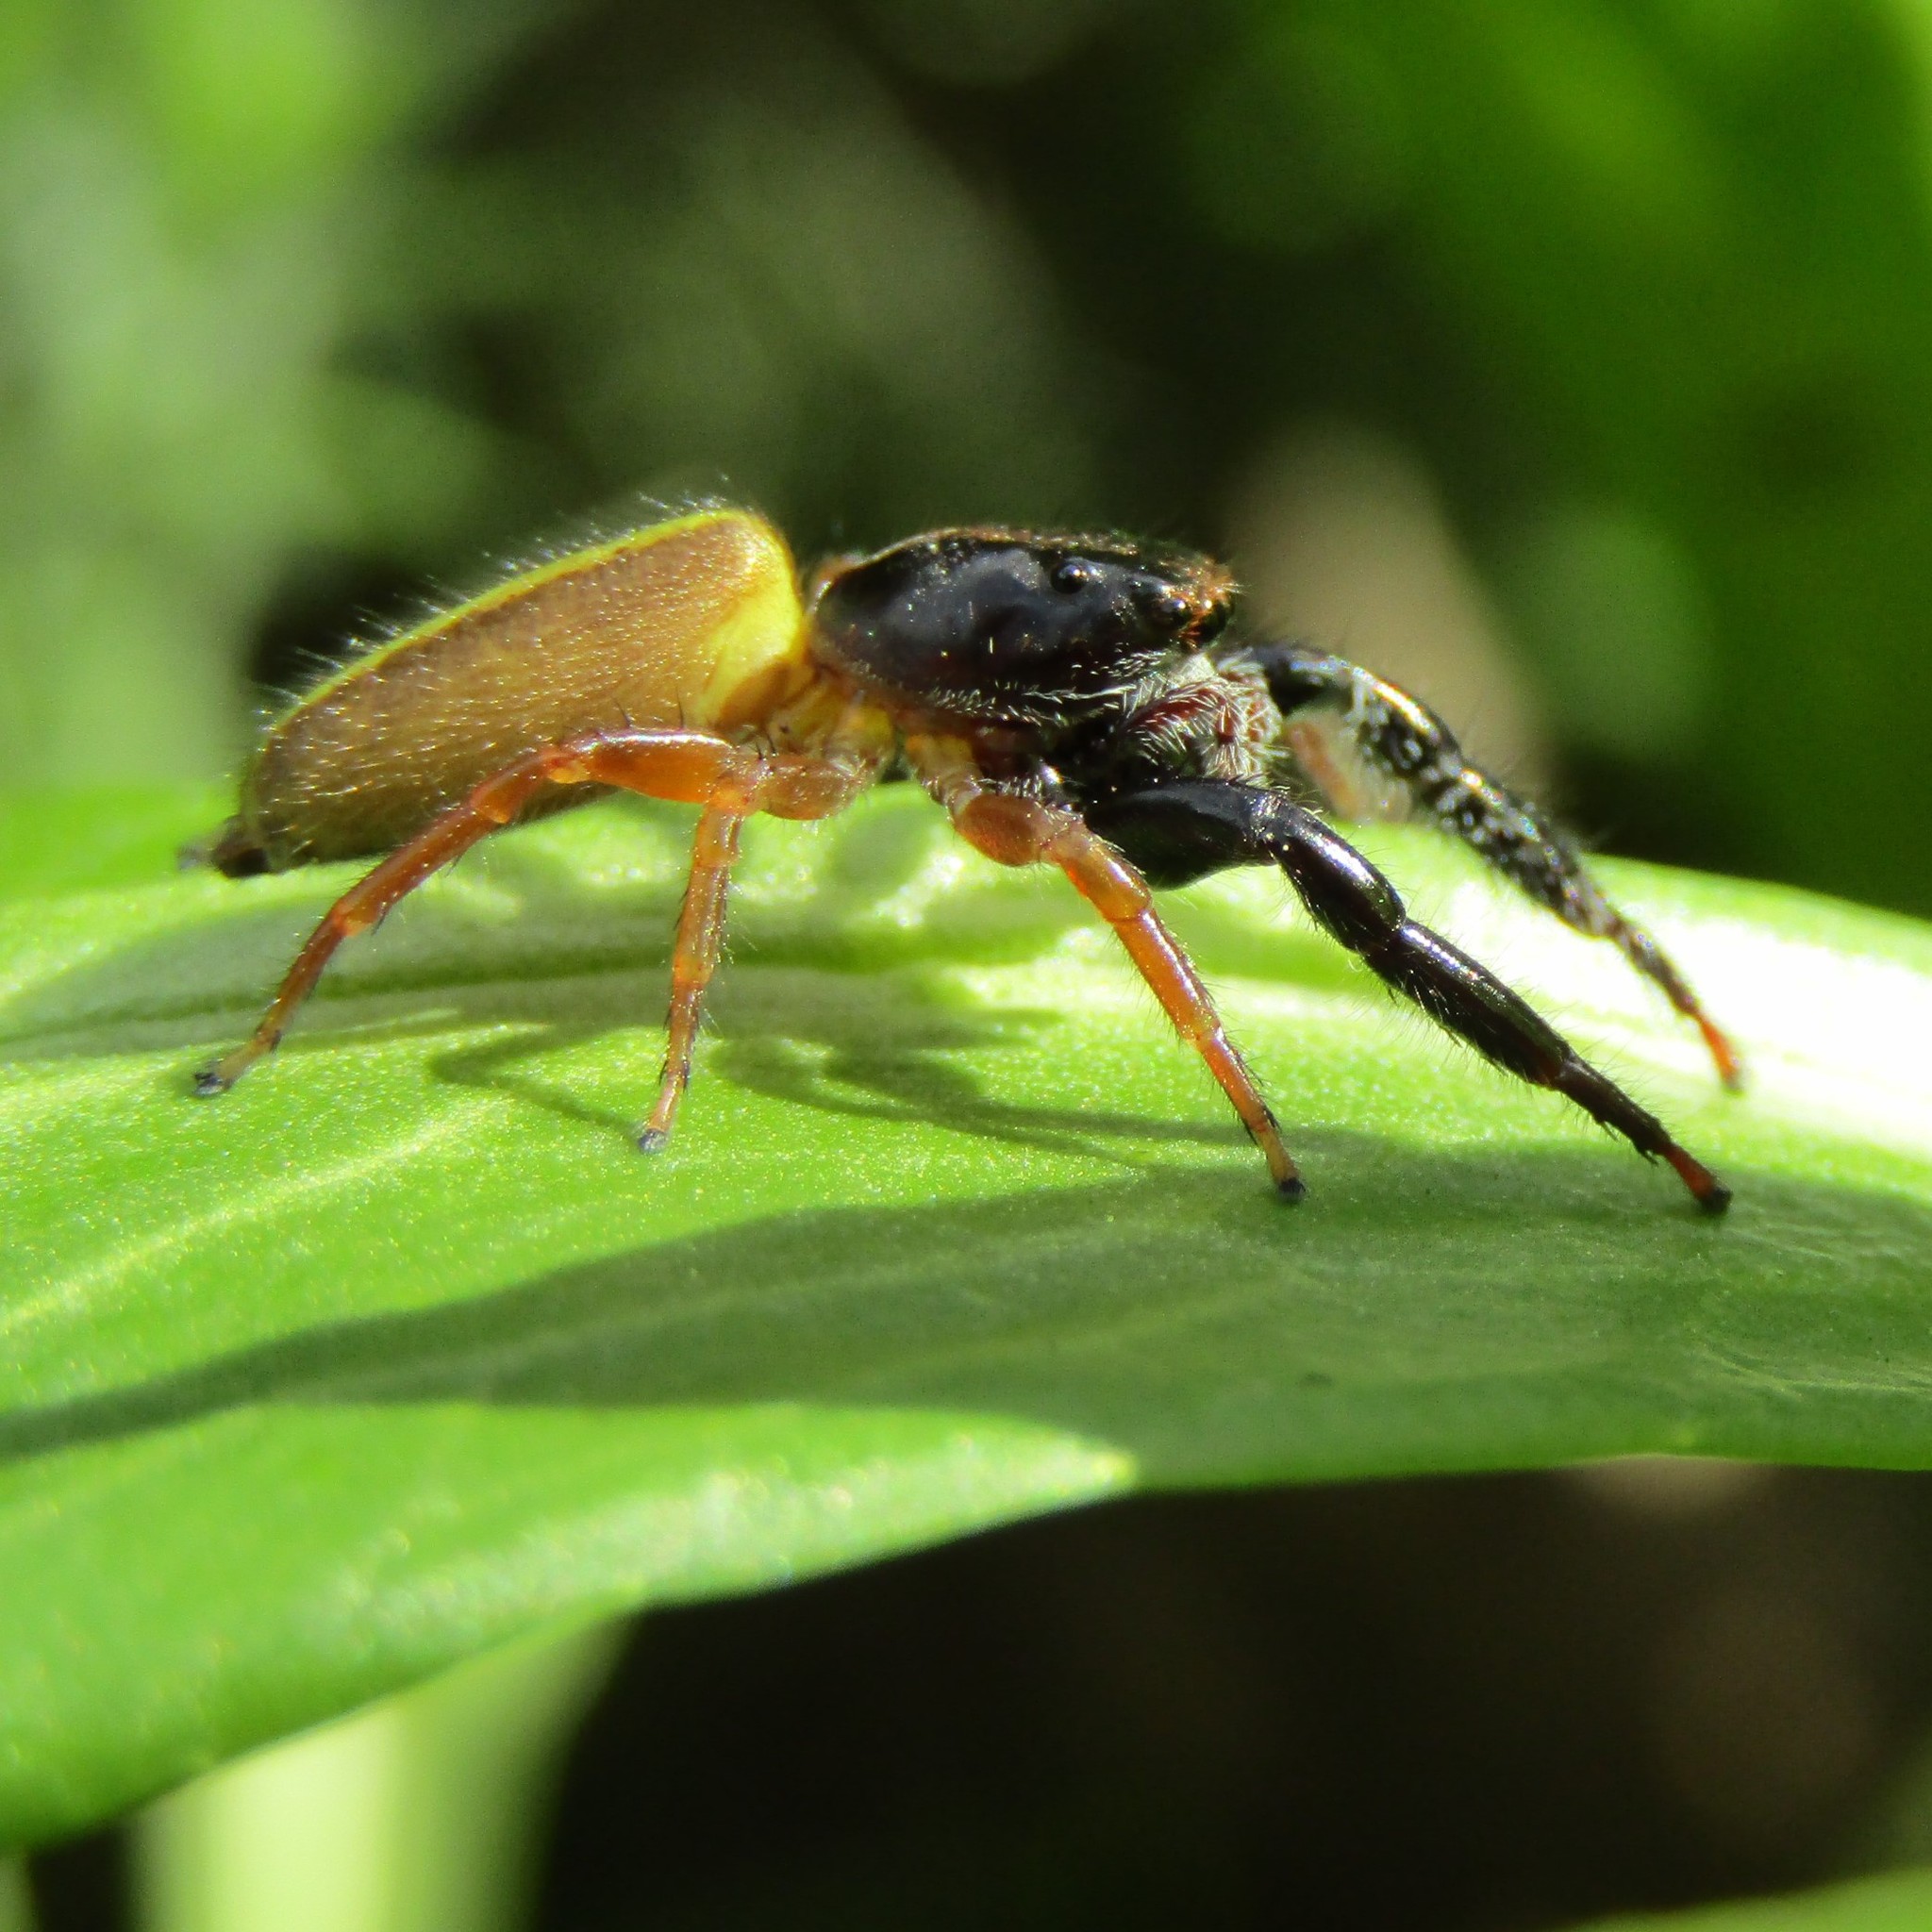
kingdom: Animalia
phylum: Arthropoda
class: Arachnida
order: Araneae
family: Salticidae
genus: Trite
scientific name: Trite planiceps
